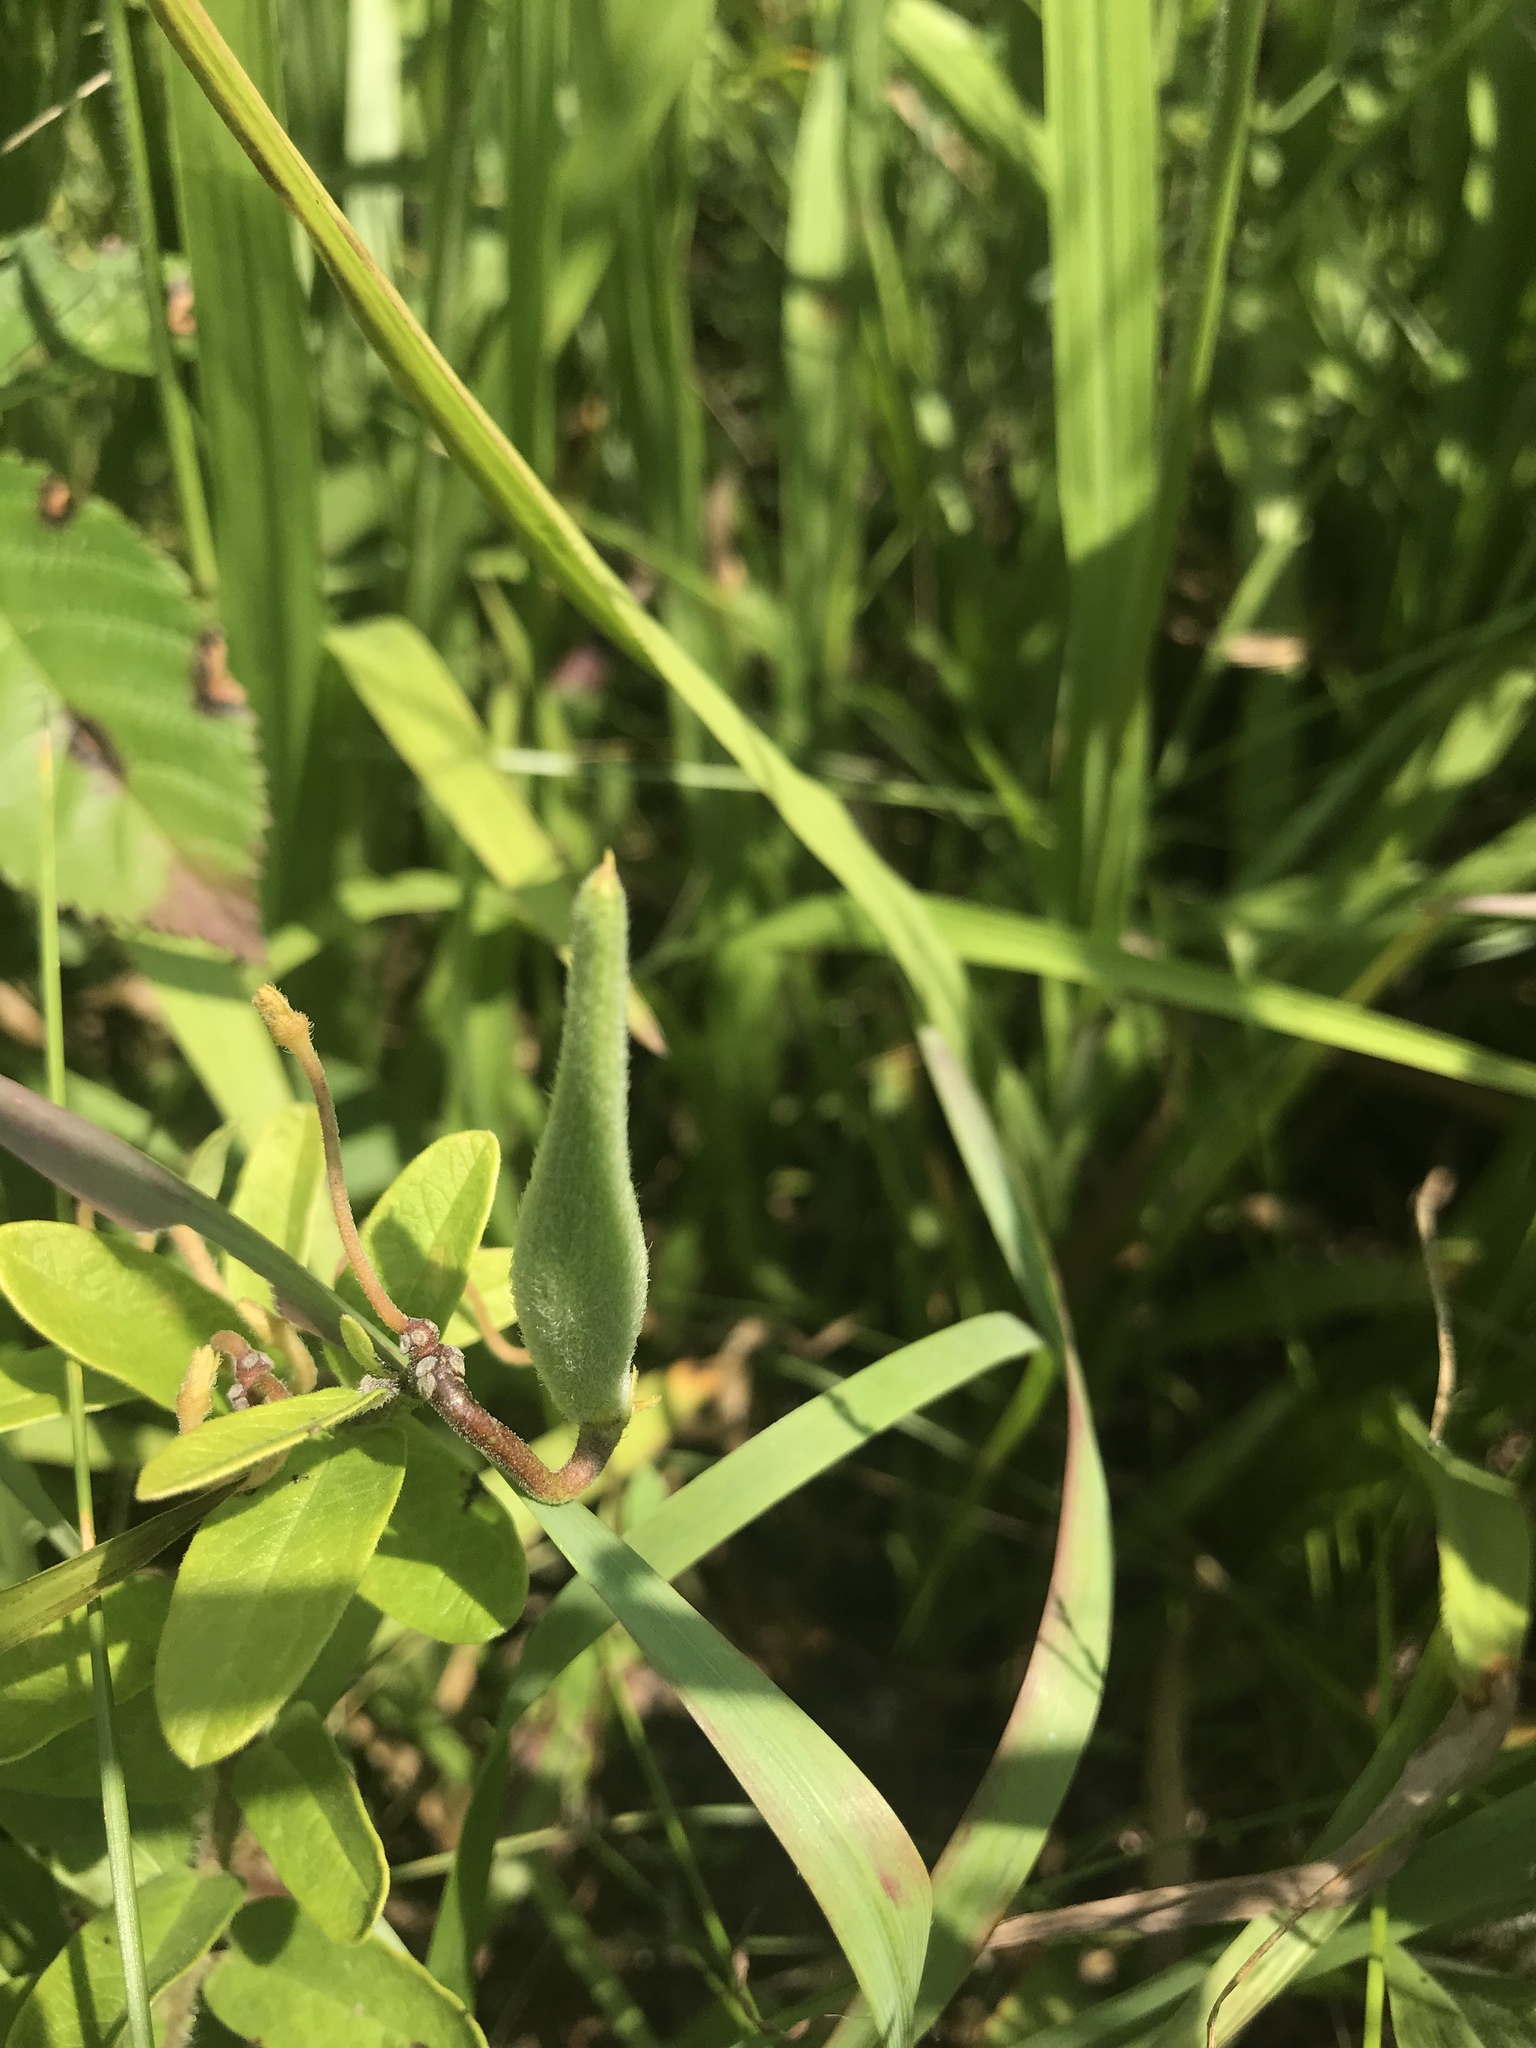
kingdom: Plantae
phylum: Tracheophyta
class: Magnoliopsida
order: Gentianales
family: Apocynaceae
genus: Asclepias
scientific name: Asclepias tuberosa
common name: Butterfly milkweed
